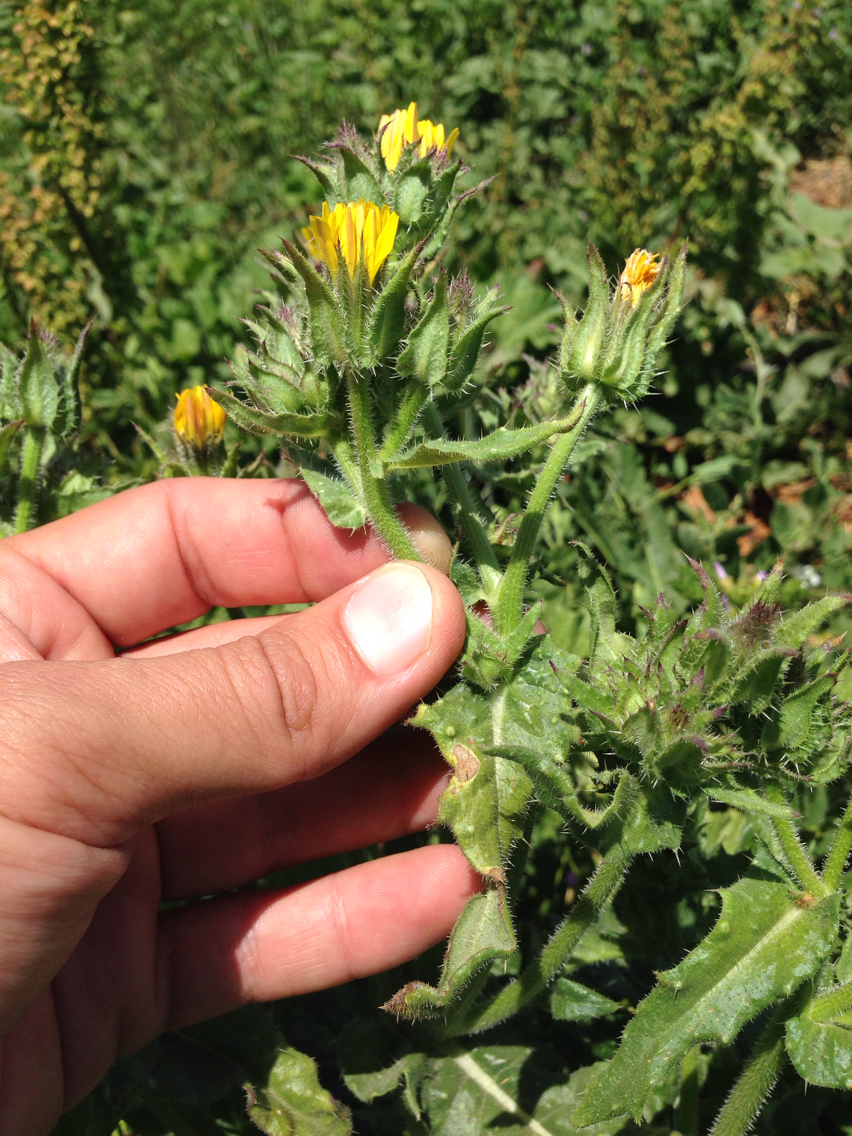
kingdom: Plantae
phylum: Tracheophyta
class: Magnoliopsida
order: Asterales
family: Asteraceae
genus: Helminthotheca
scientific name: Helminthotheca echioides
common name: Ox-tongue
